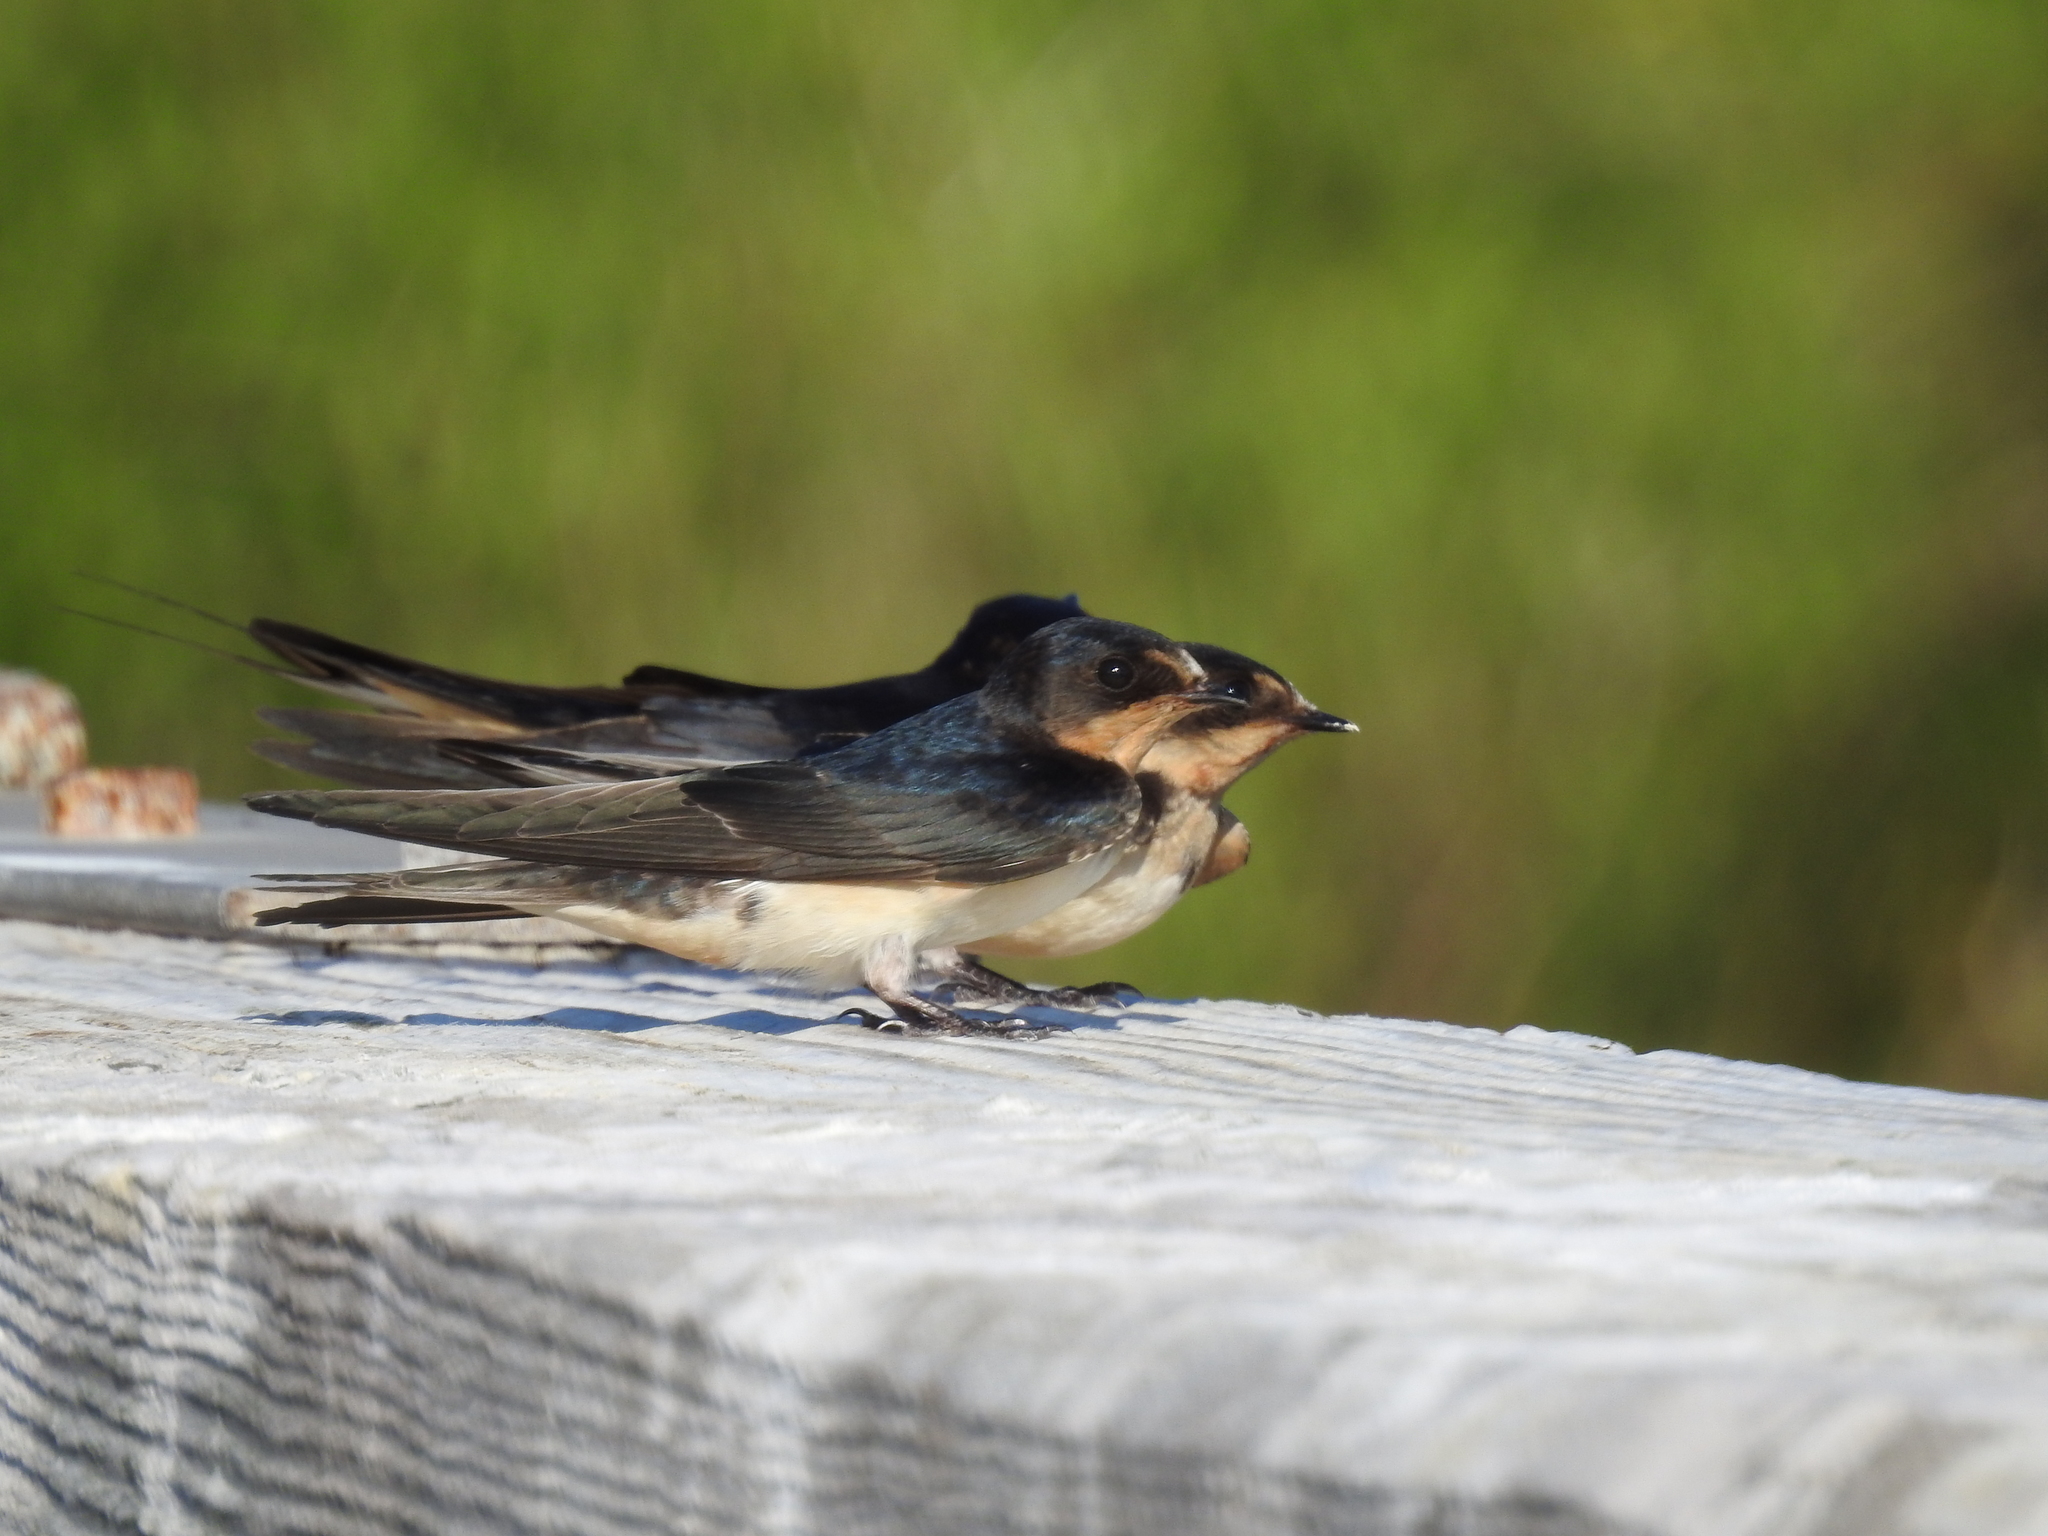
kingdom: Animalia
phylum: Chordata
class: Aves
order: Passeriformes
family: Hirundinidae
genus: Hirundo
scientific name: Hirundo rustica
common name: Barn swallow
